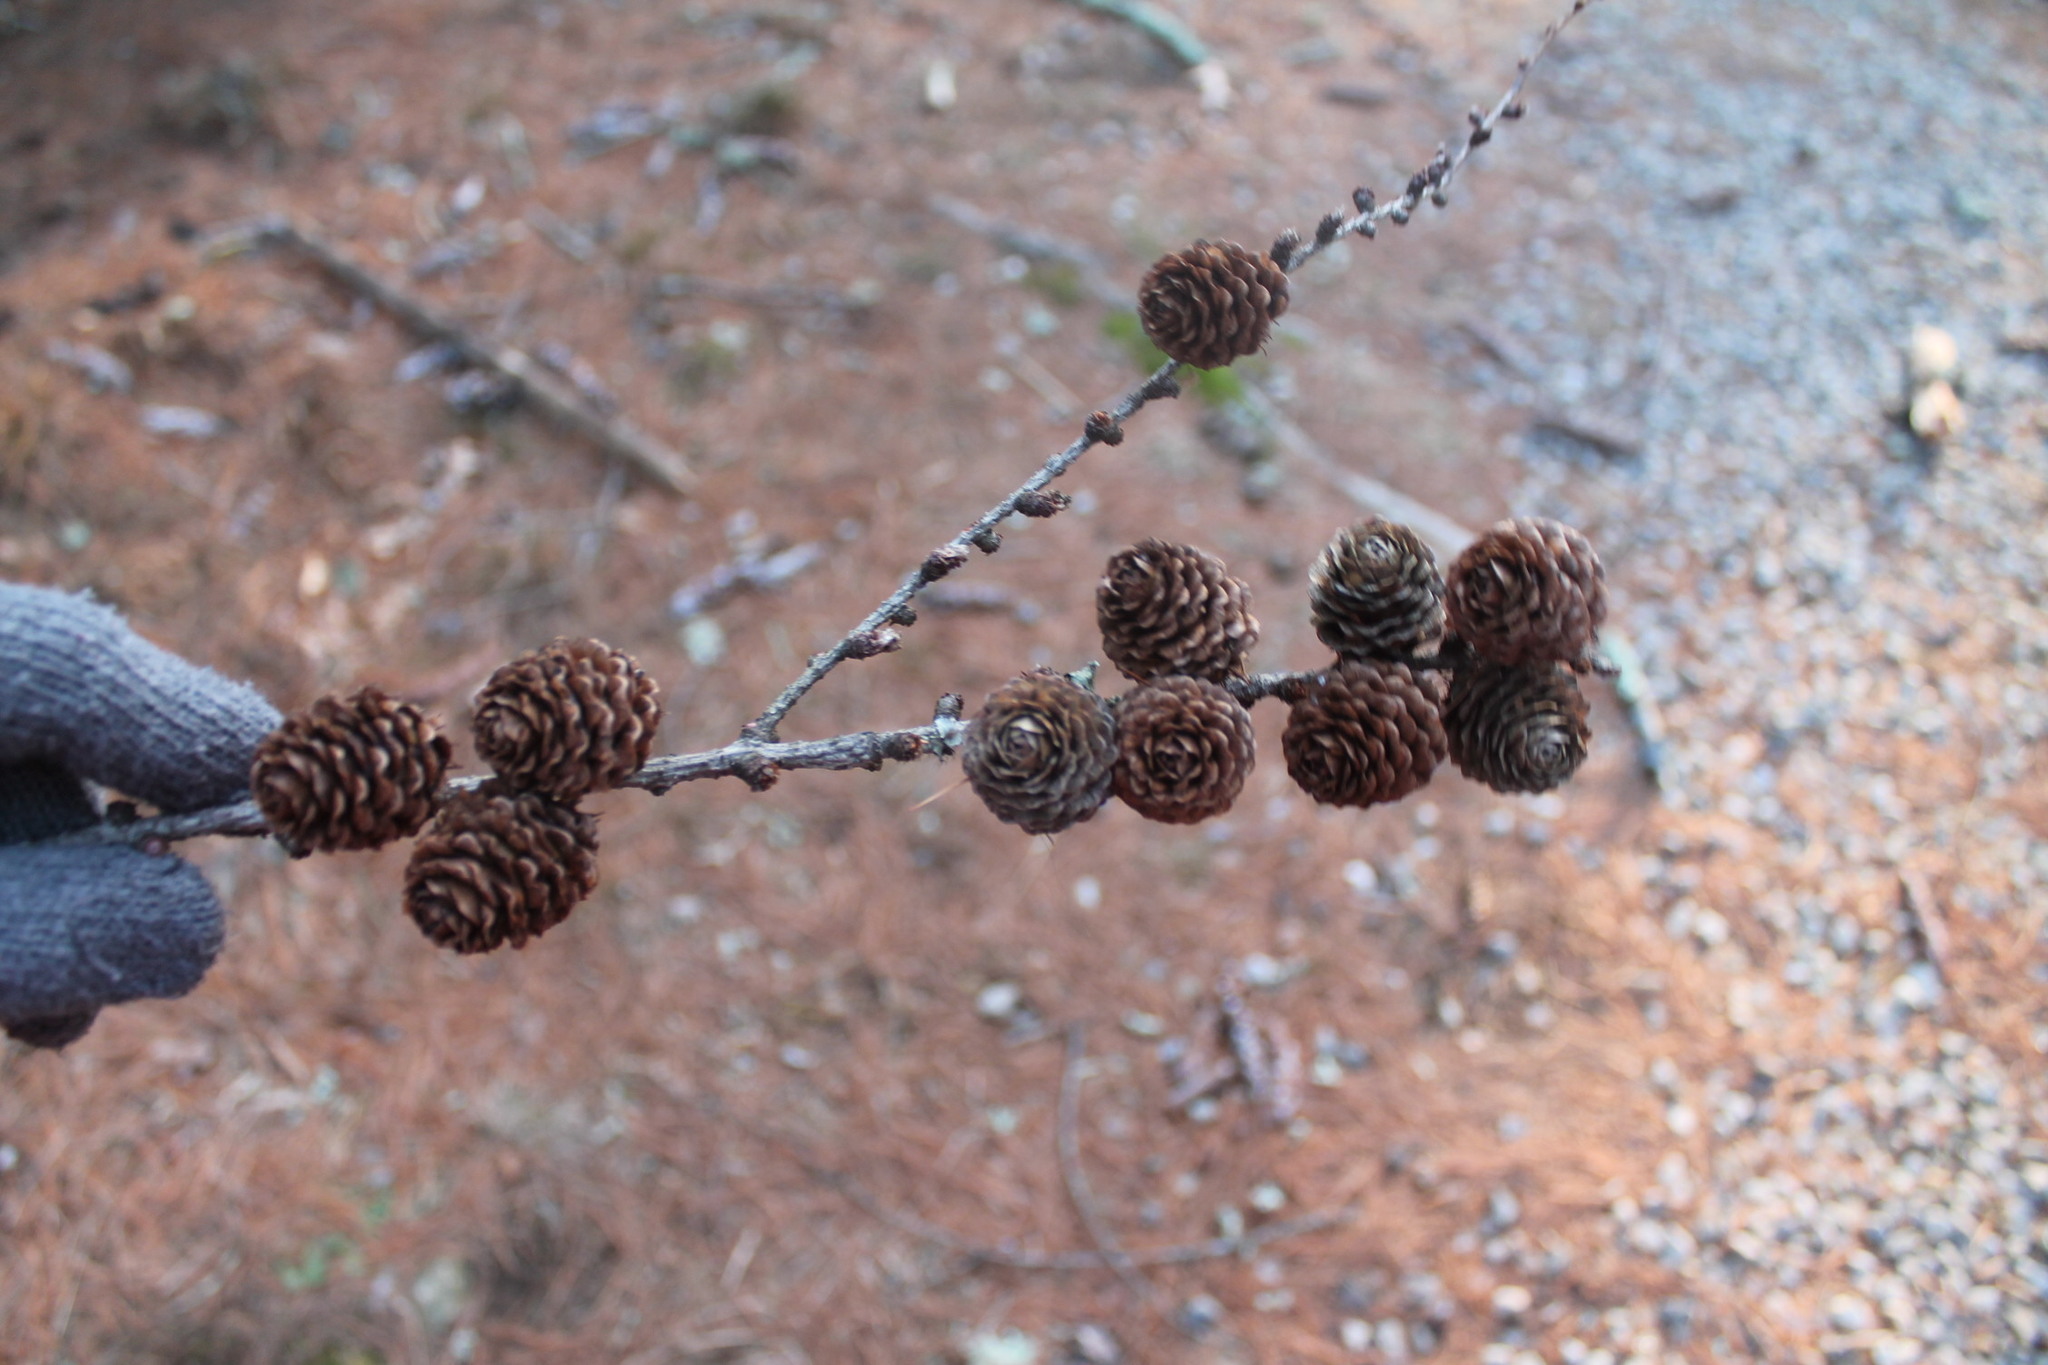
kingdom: Plantae
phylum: Tracheophyta
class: Pinopsida
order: Pinales
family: Pinaceae
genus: Larix
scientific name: Larix decidua
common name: European larch
